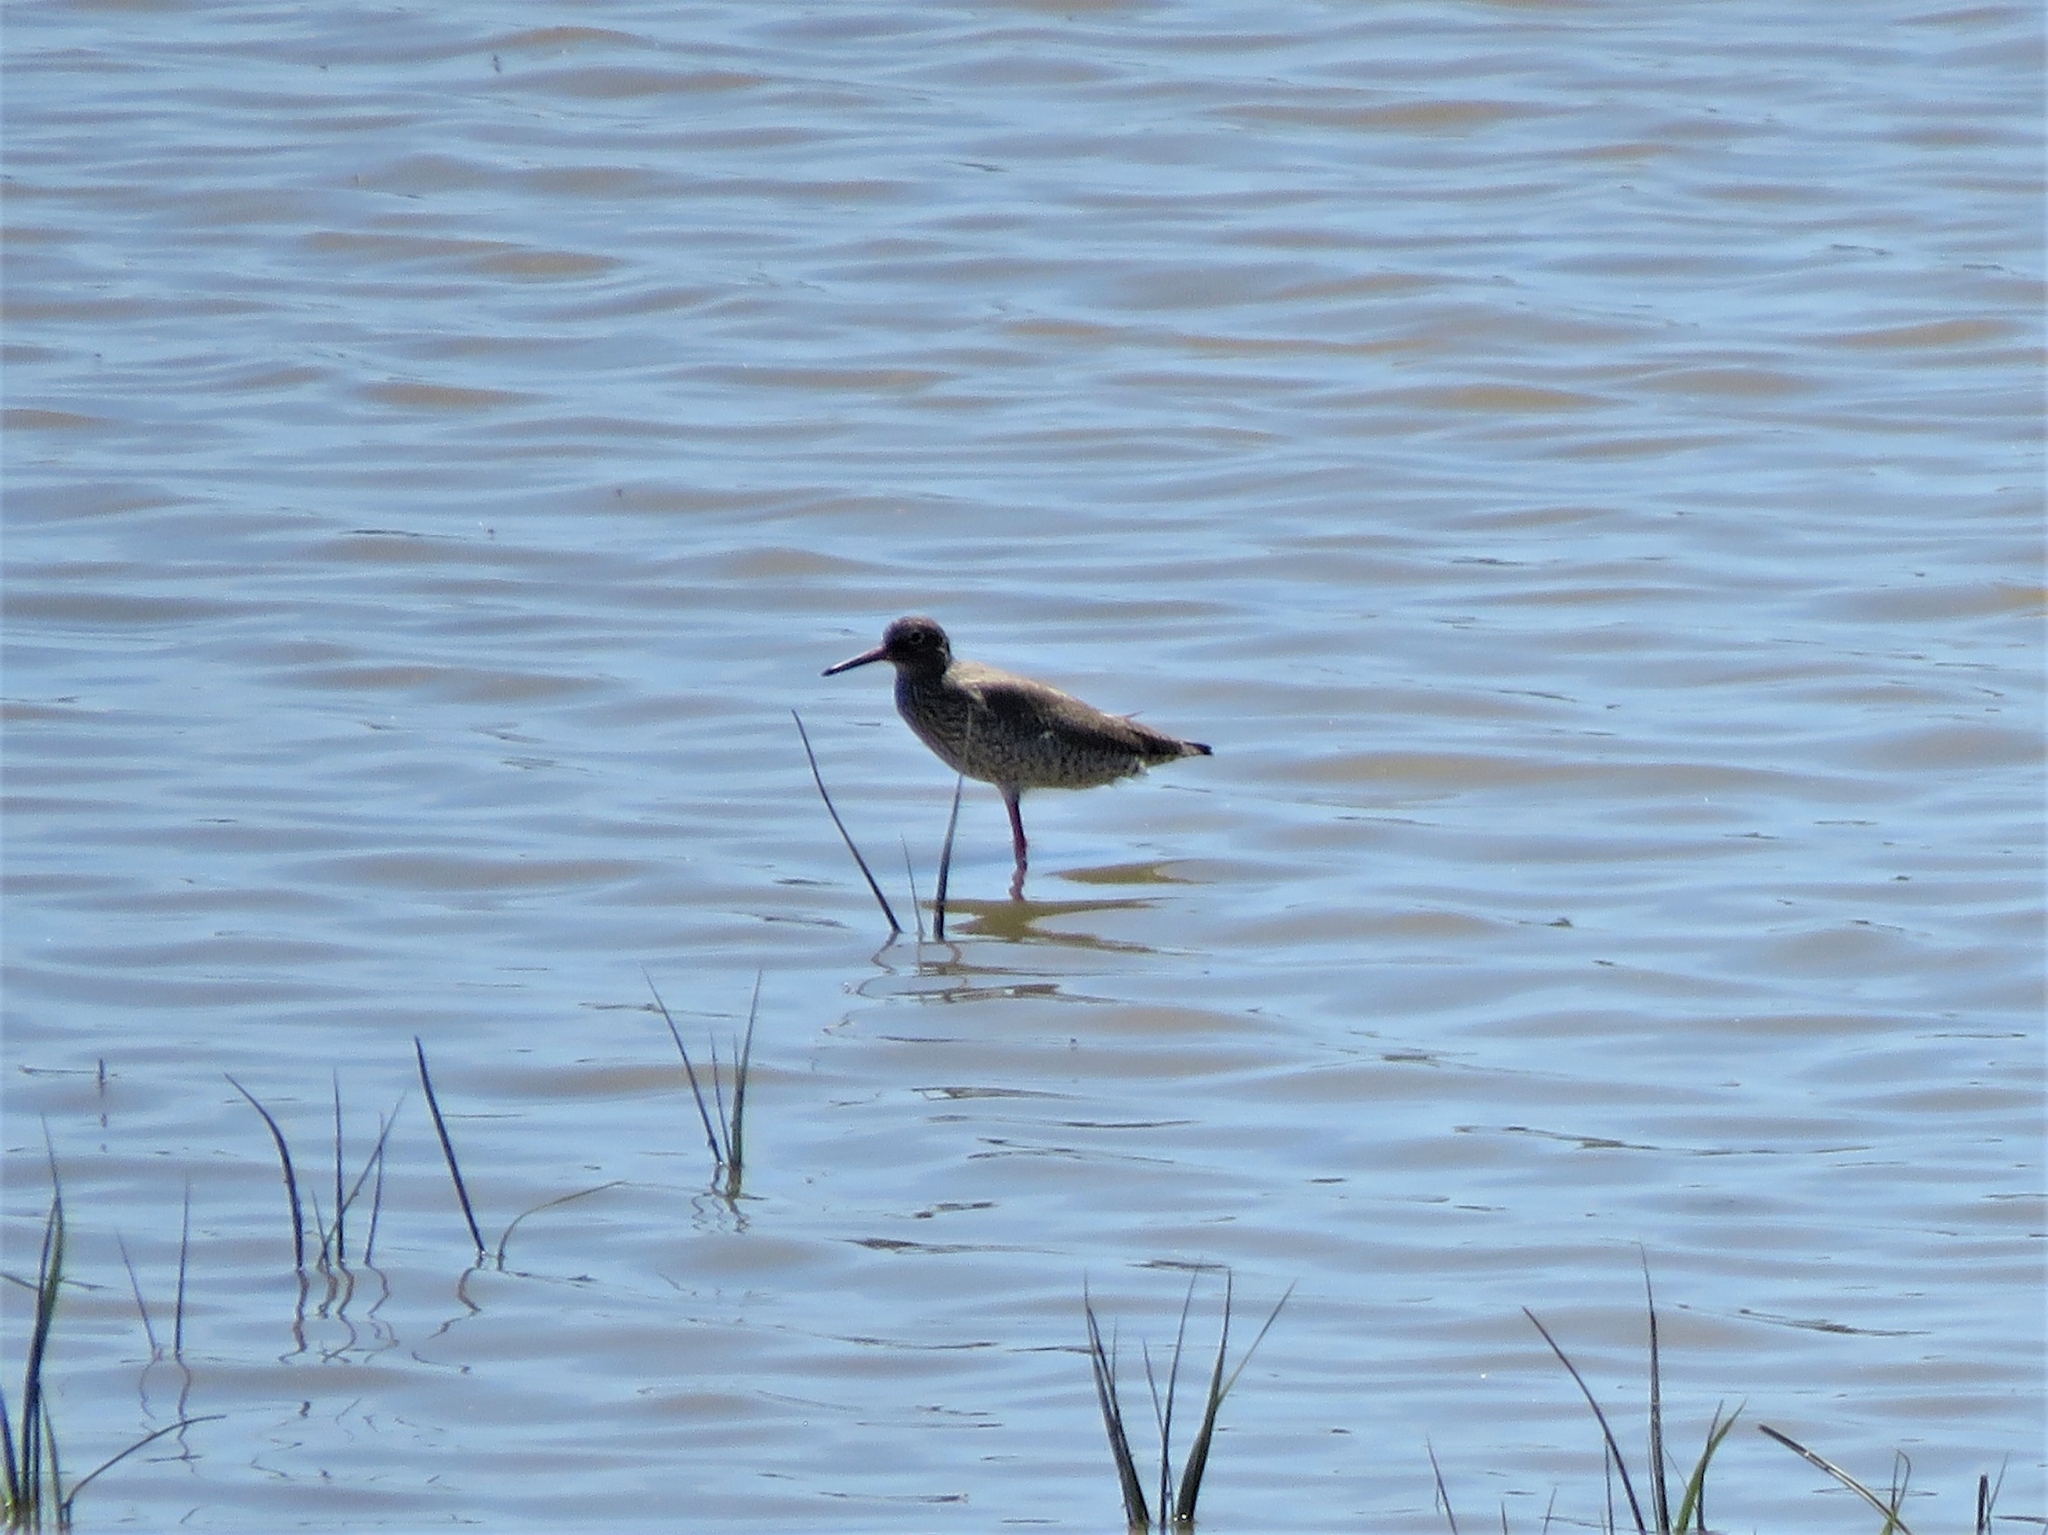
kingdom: Animalia
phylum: Chordata
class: Aves
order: Charadriiformes
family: Scolopacidae
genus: Tringa
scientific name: Tringa totanus
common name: Common redshank
